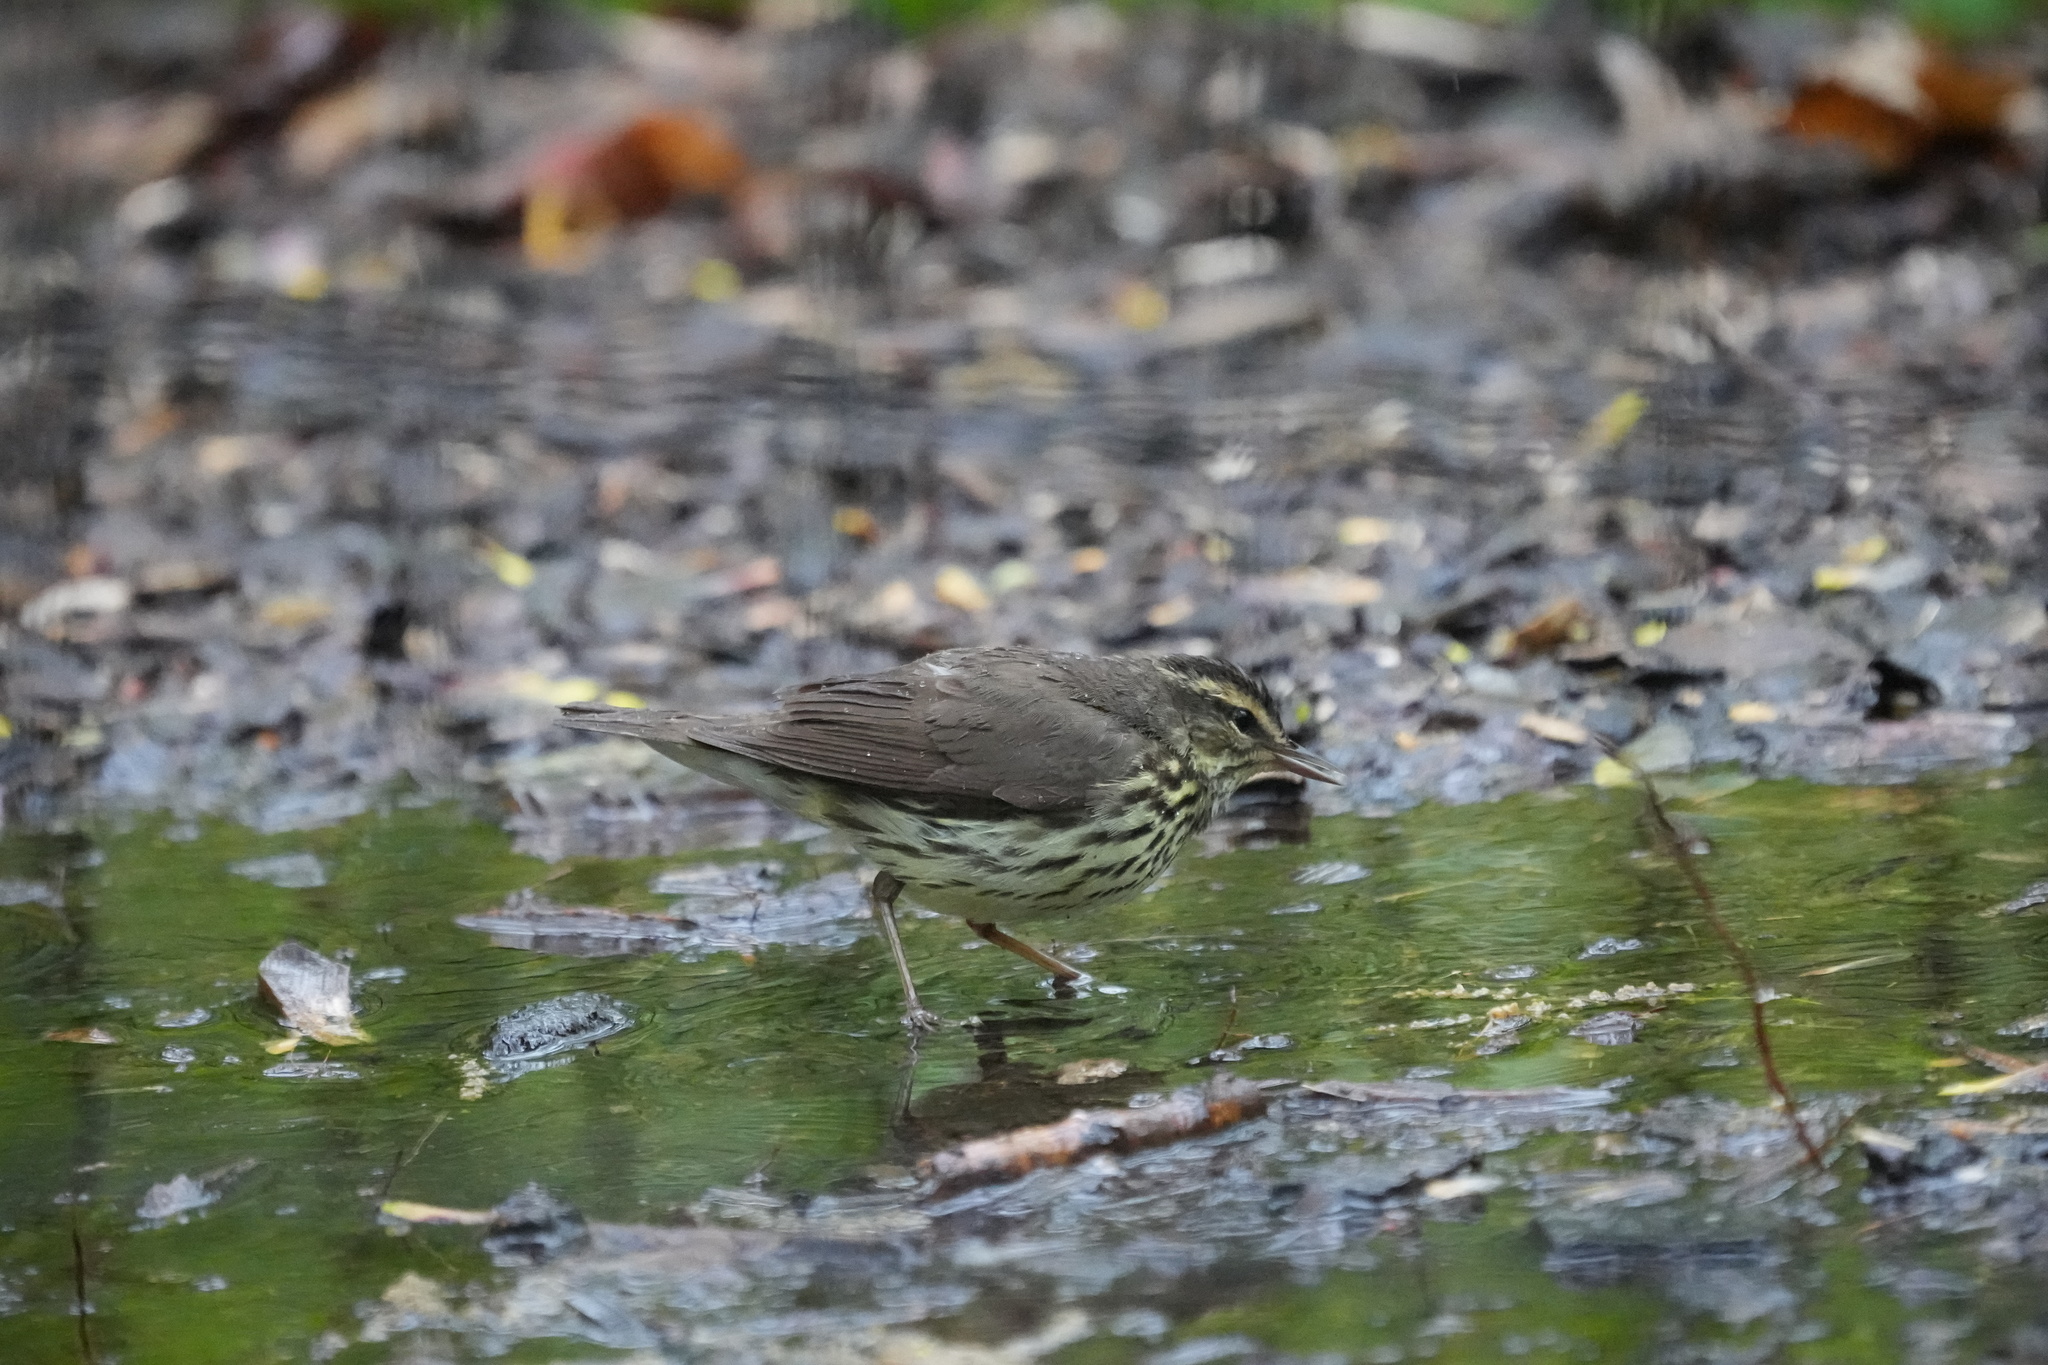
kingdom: Animalia
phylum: Chordata
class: Aves
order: Passeriformes
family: Parulidae
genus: Parkesia
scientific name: Parkesia noveboracensis
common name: Northern waterthrush
